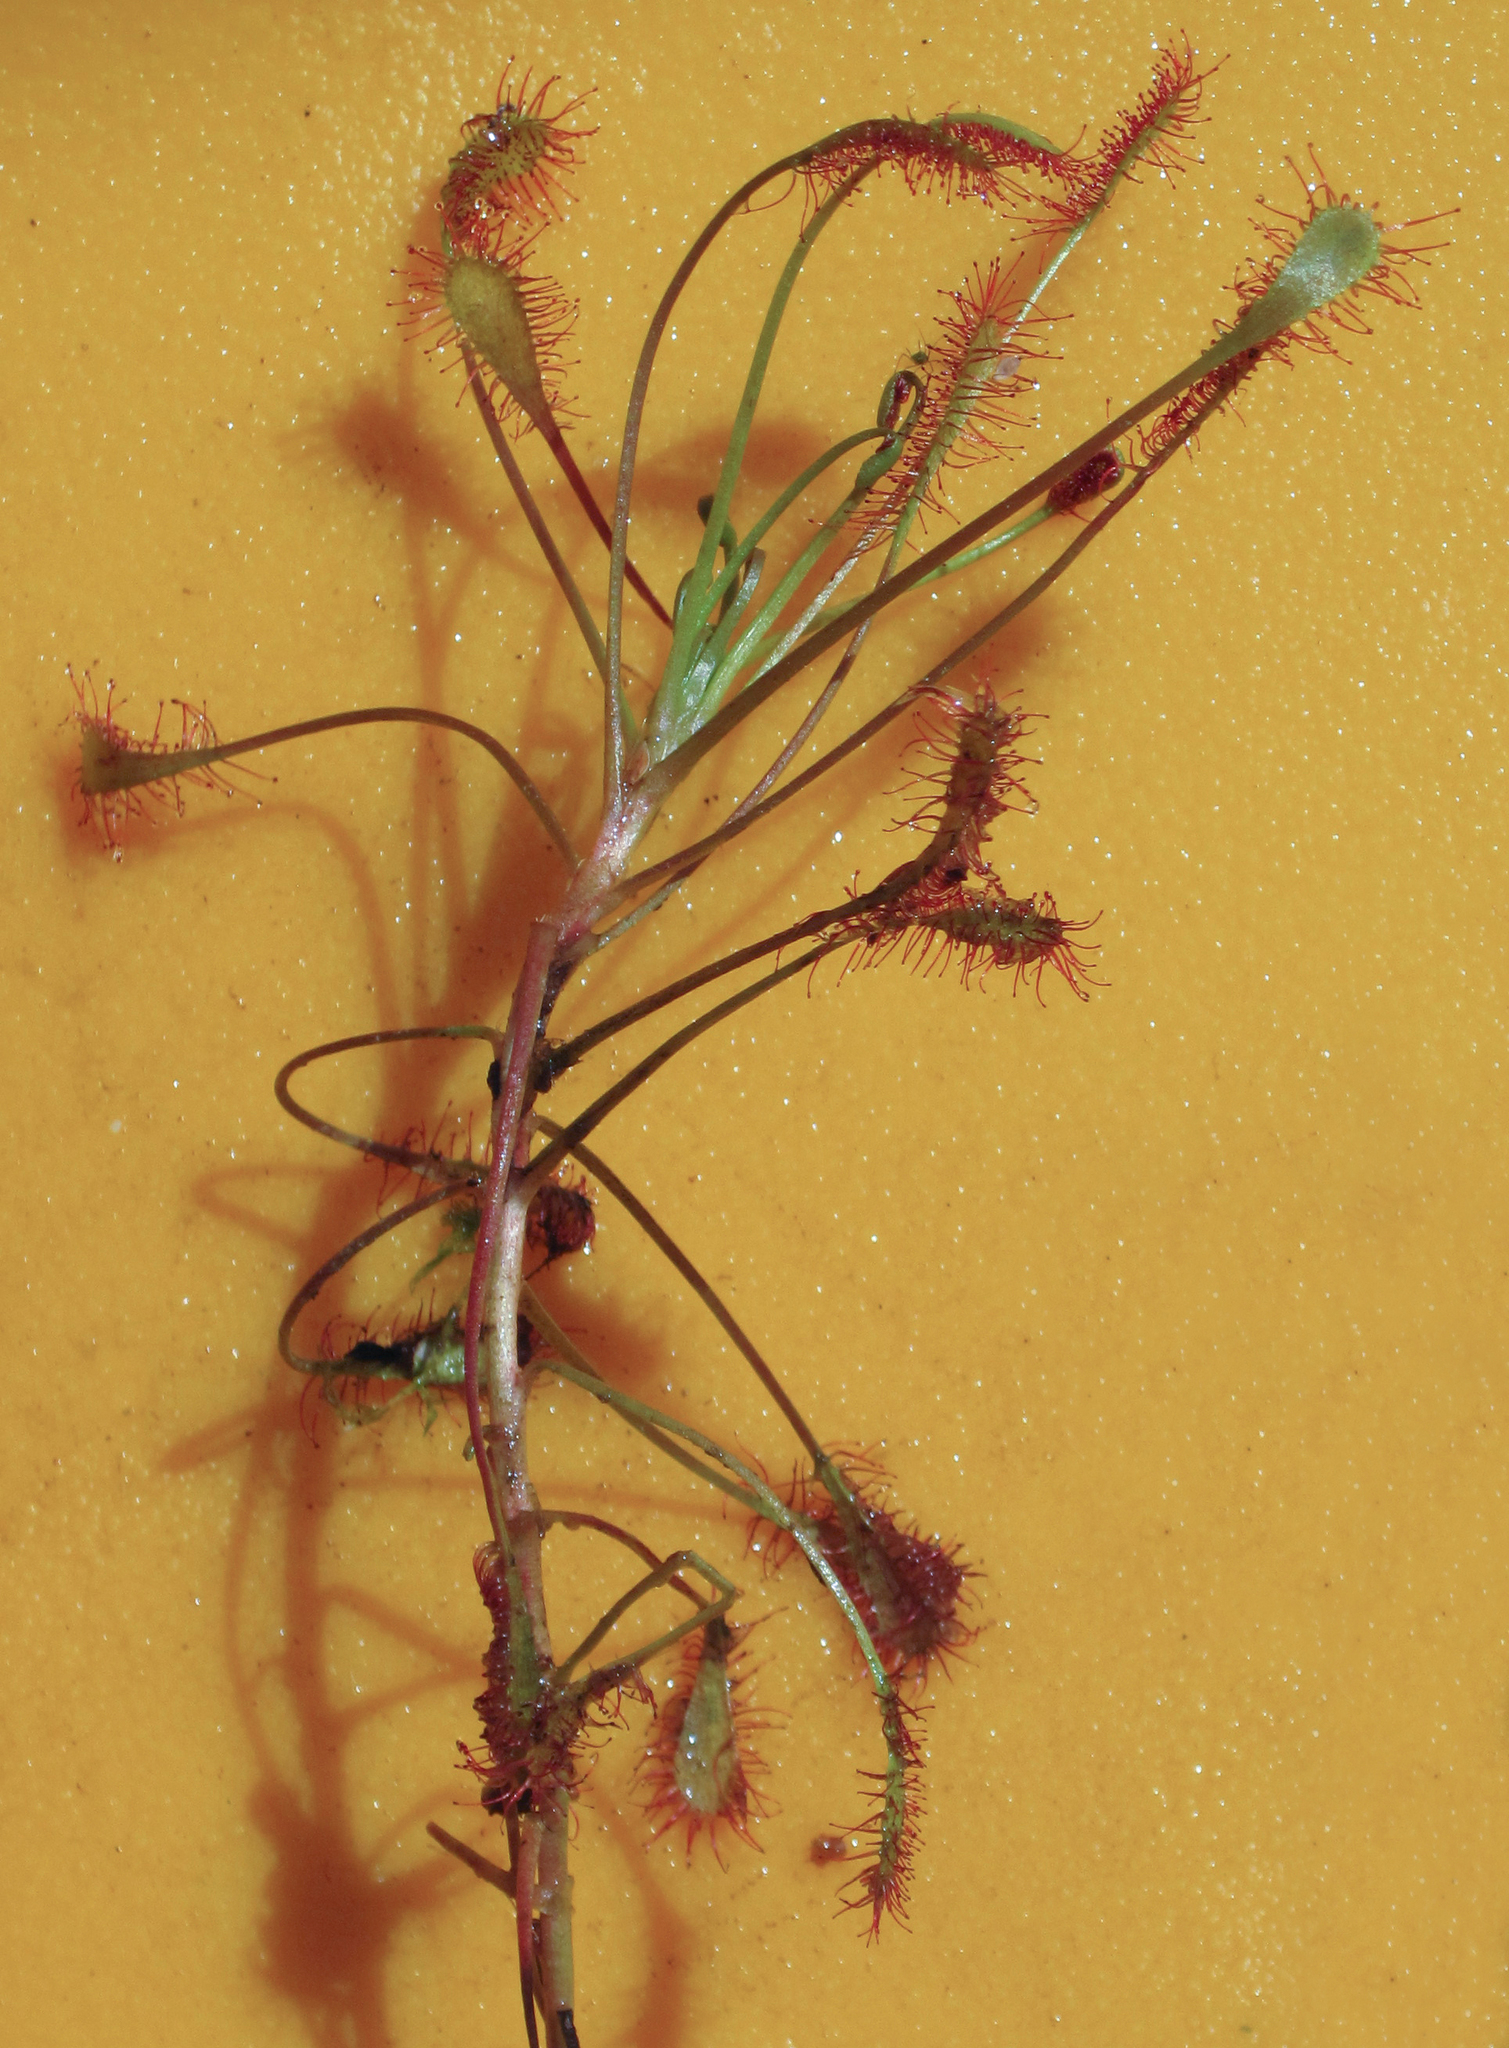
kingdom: Plantae
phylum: Tracheophyta
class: Magnoliopsida
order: Caryophyllales
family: Droseraceae
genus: Drosera
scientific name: Drosera intermedia
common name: Oblong-leaved sundew
